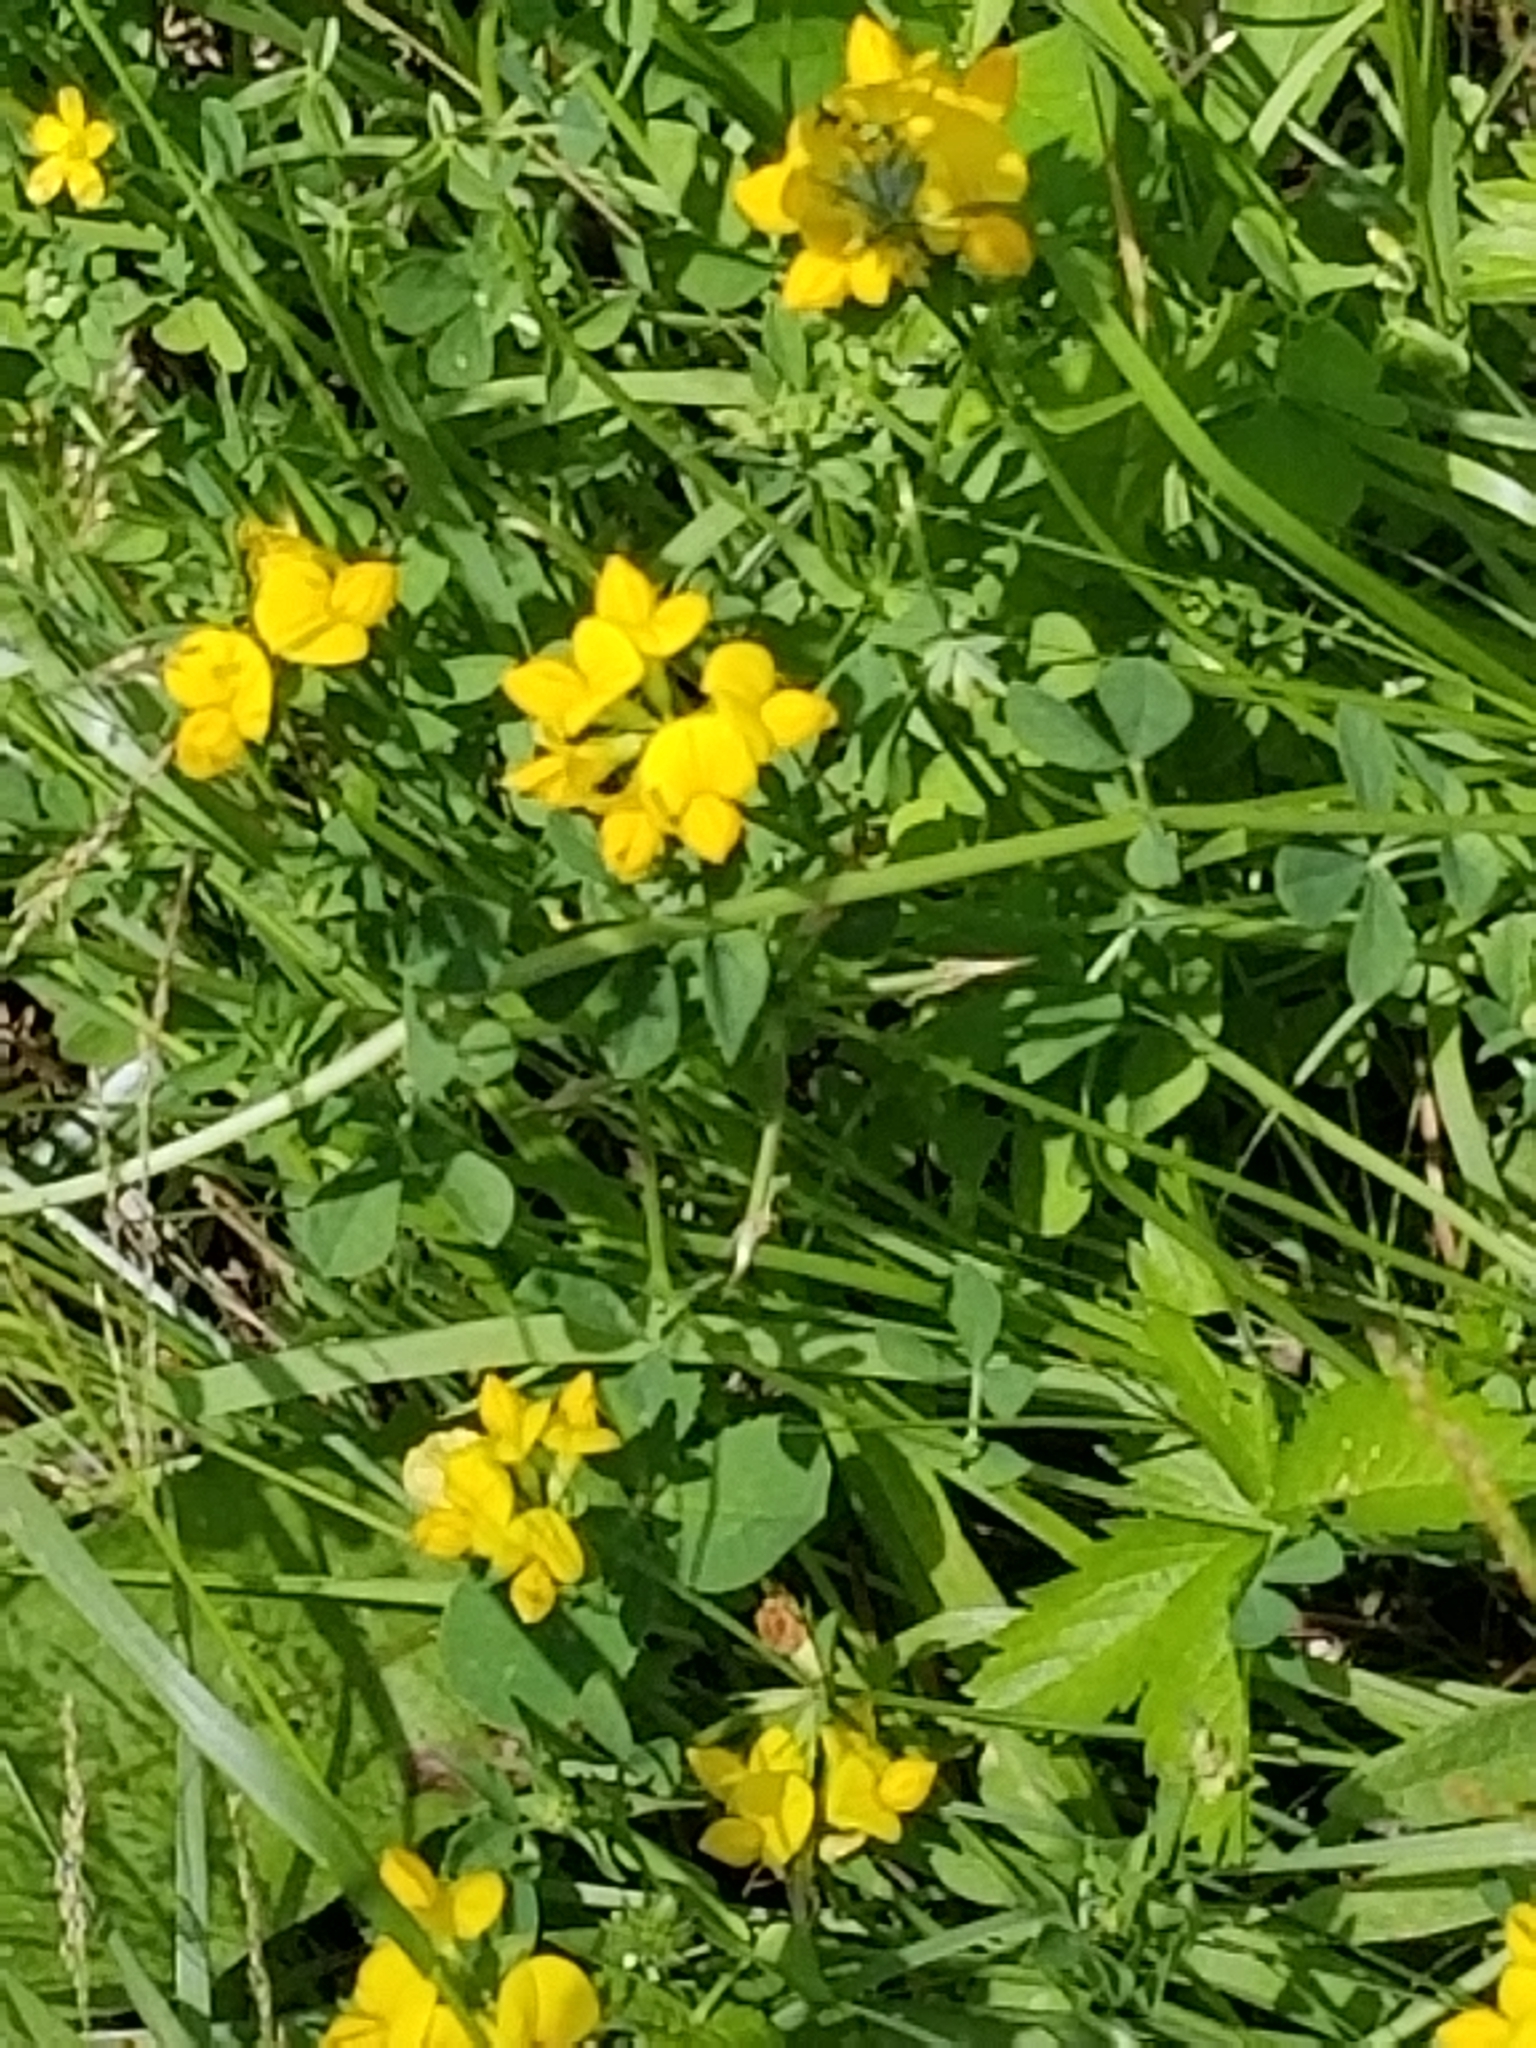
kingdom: Plantae
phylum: Tracheophyta
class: Magnoliopsida
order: Fabales
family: Fabaceae
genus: Lotus
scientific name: Lotus corniculatus
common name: Common bird's-foot-trefoil
